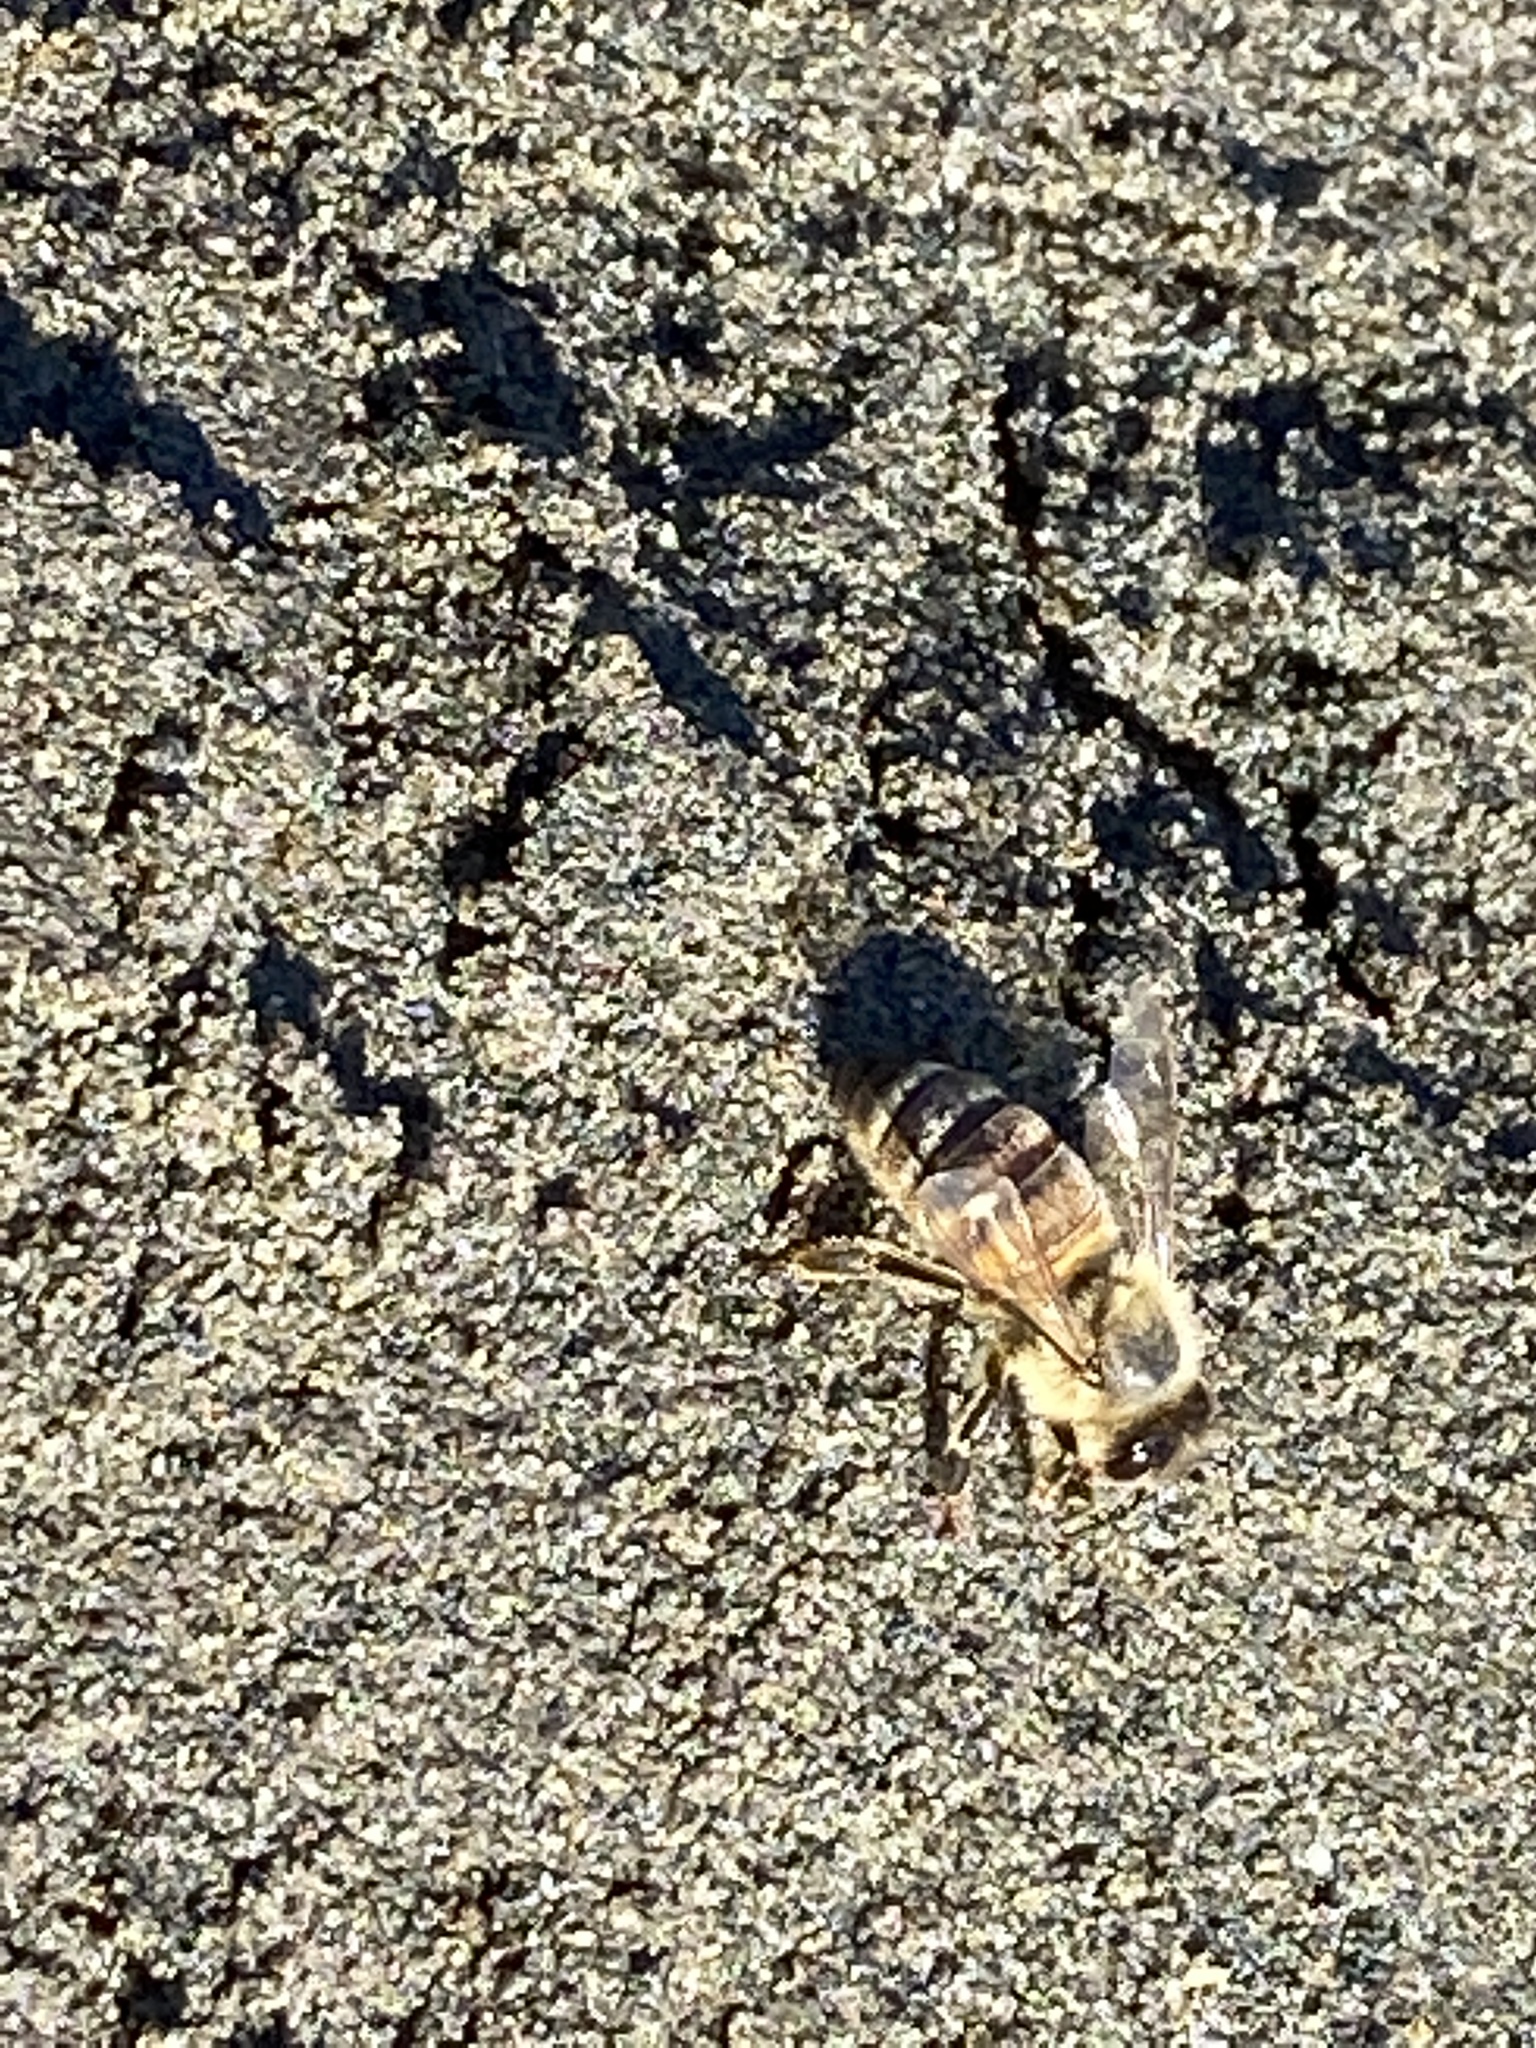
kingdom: Animalia
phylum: Arthropoda
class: Insecta
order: Hymenoptera
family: Apidae
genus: Apis
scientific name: Apis mellifera
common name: Honey bee
